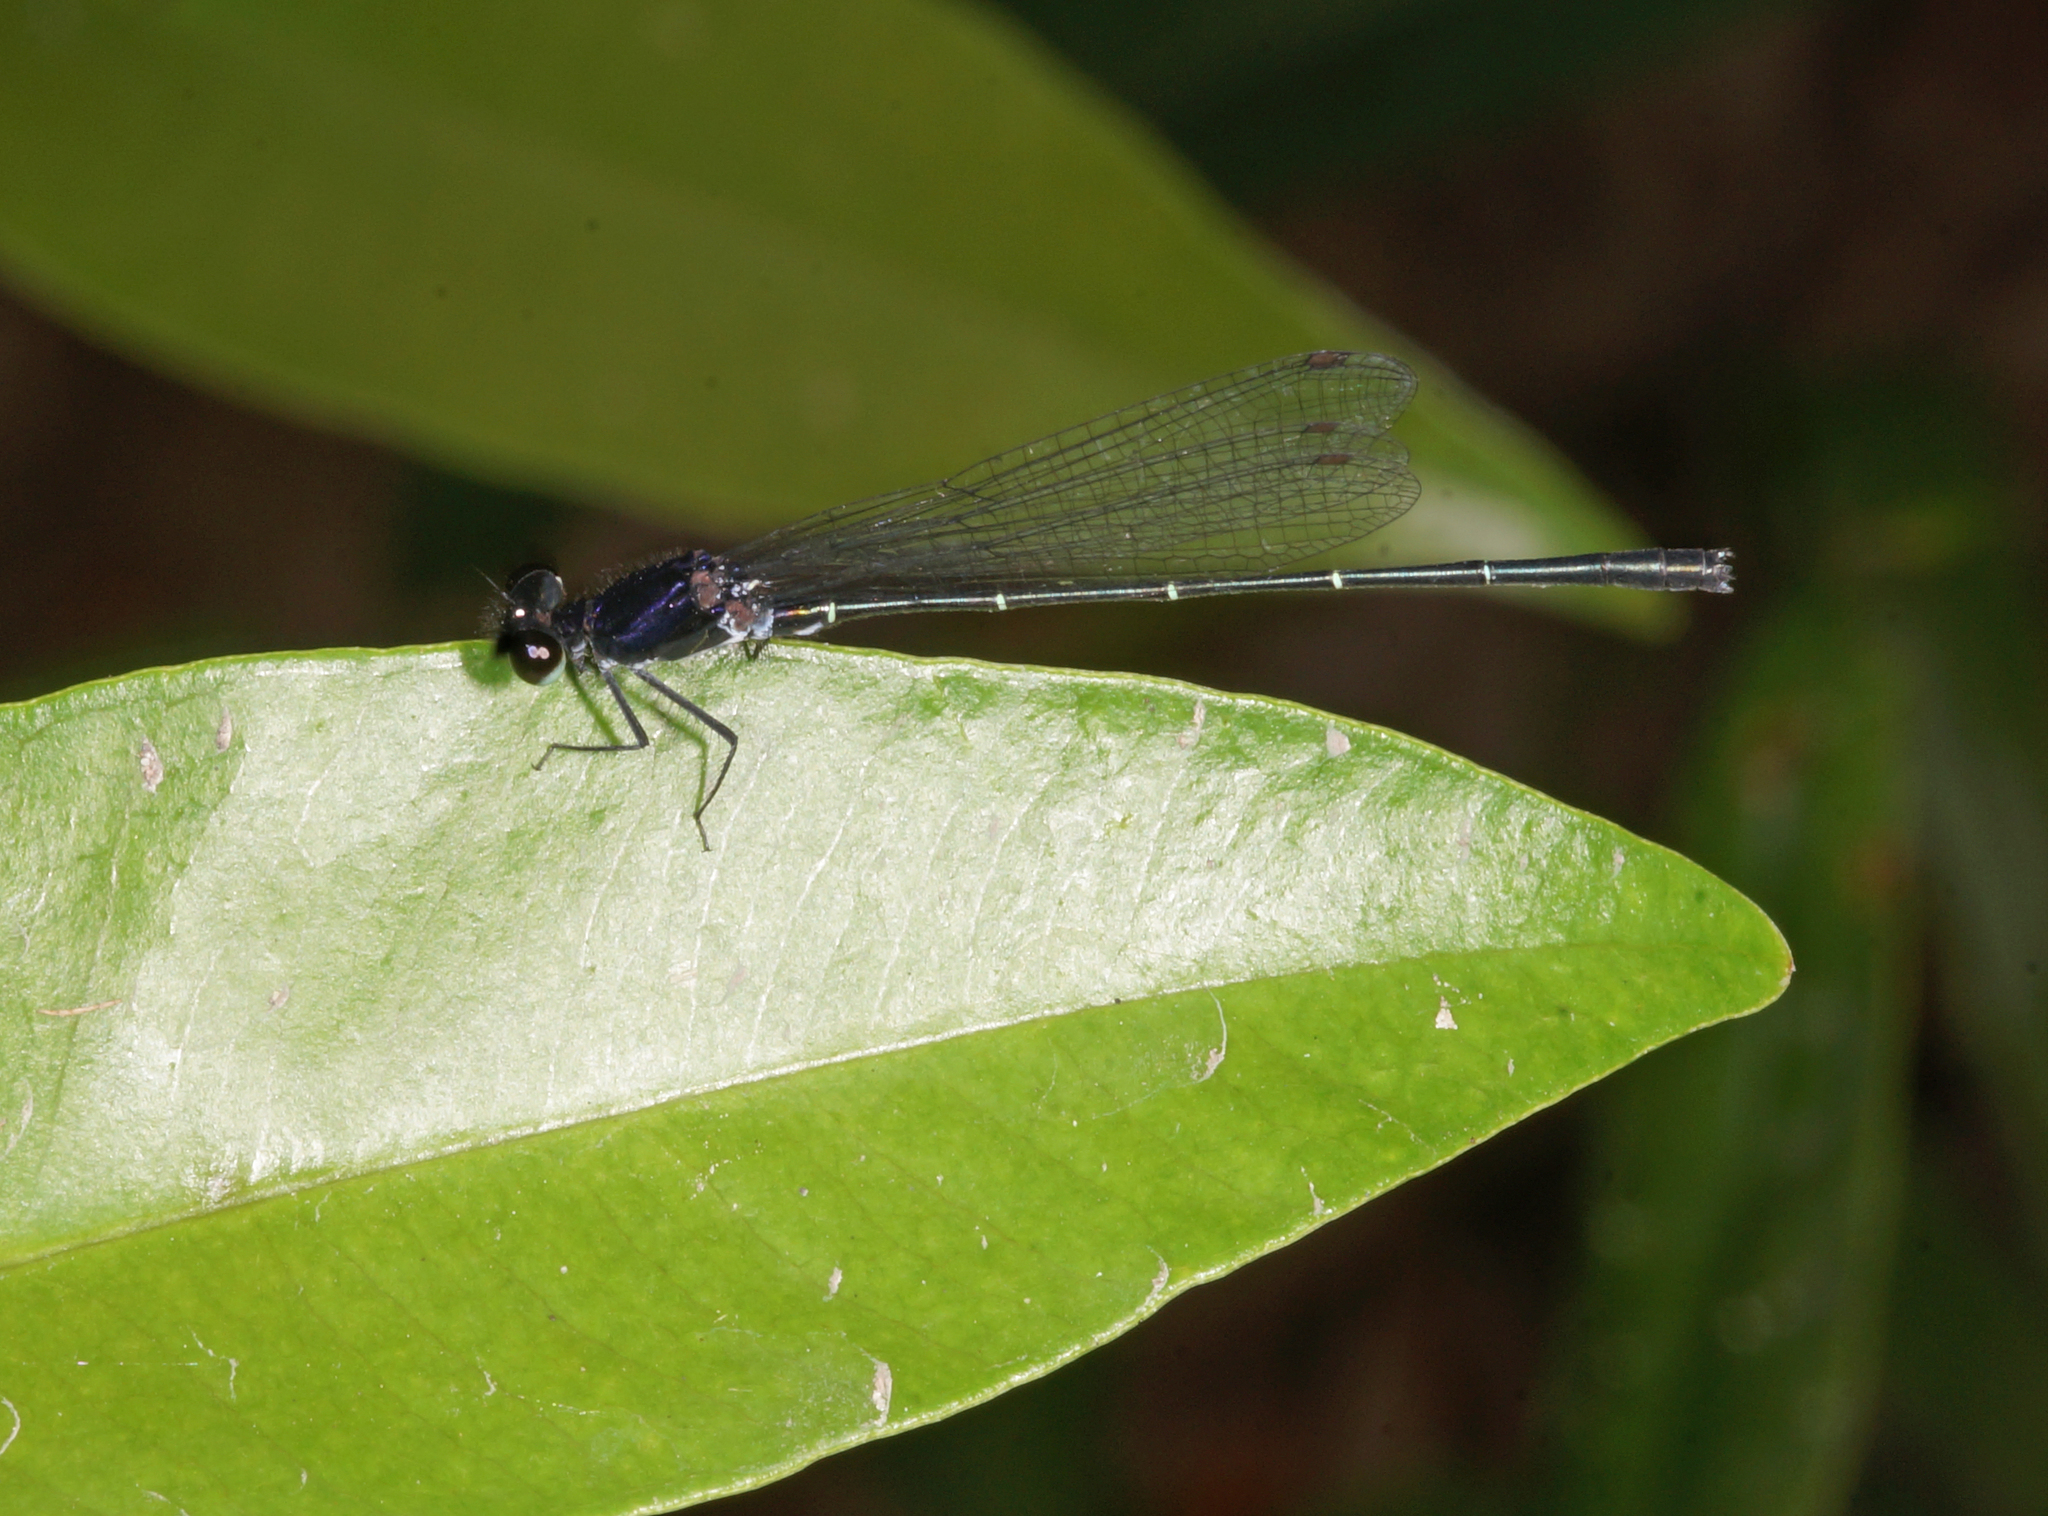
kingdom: Animalia
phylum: Arthropoda
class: Insecta
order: Odonata
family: Platycnemididae
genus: Onychargia
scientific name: Onychargia atrocyana
